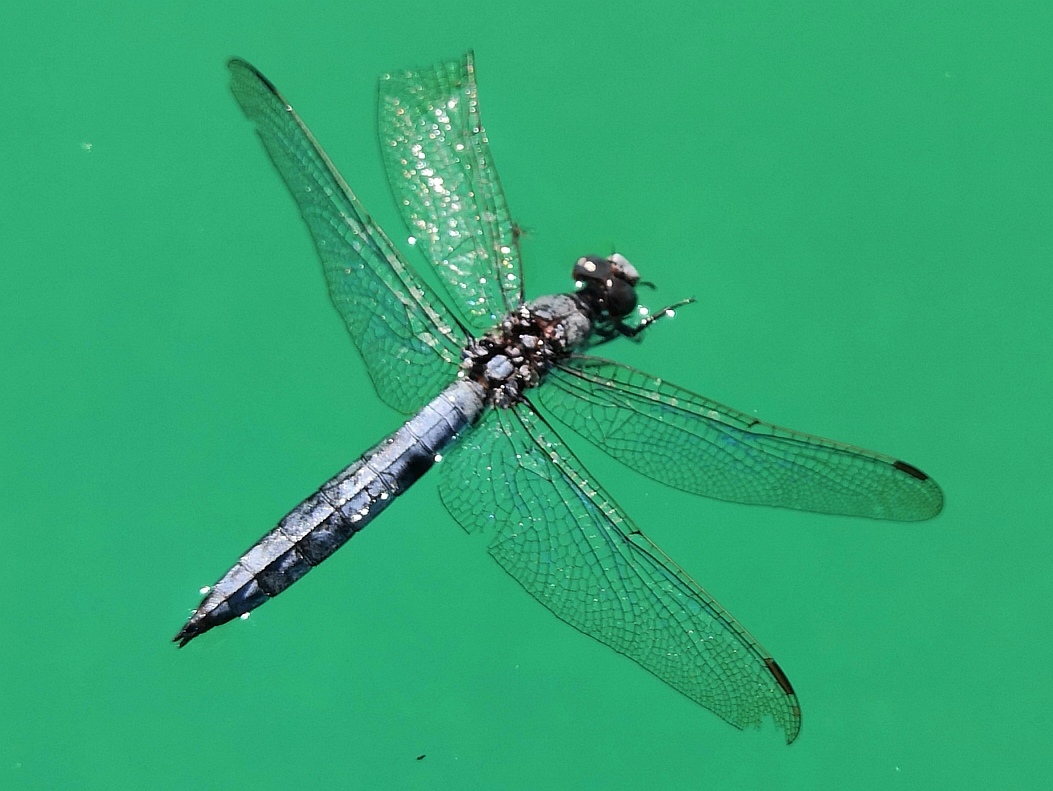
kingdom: Animalia
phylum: Arthropoda
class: Insecta
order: Odonata
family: Libellulidae
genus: Orthetrum
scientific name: Orthetrum brunneum
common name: Southern skimmer
